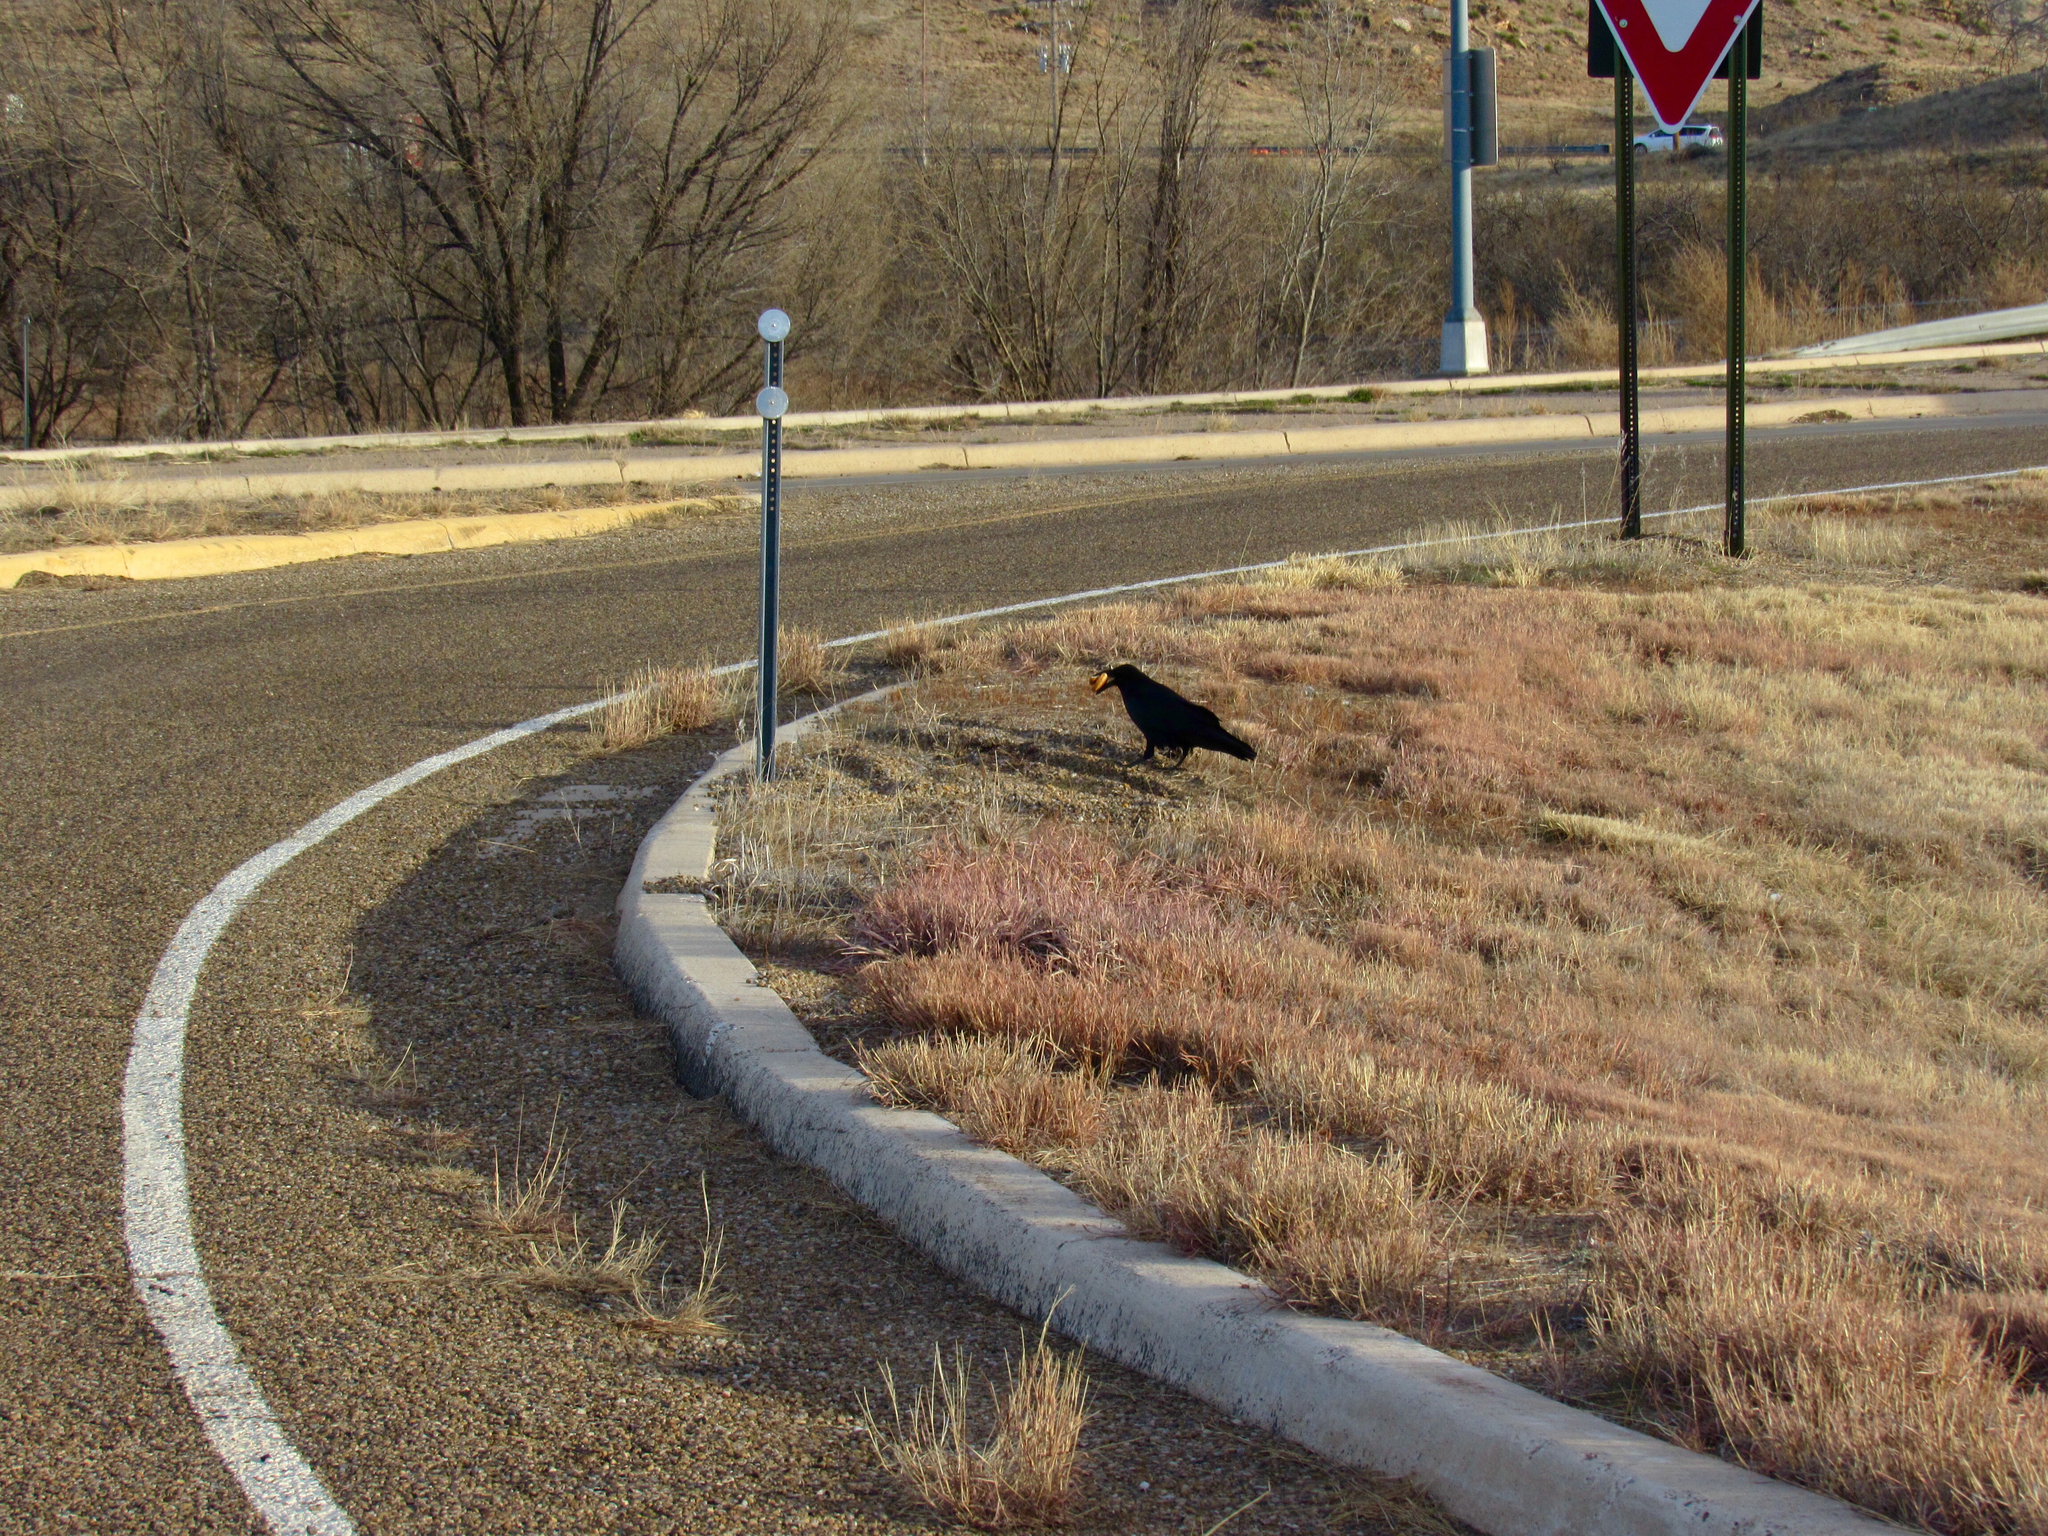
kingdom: Animalia
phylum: Chordata
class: Aves
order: Passeriformes
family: Corvidae
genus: Corvus
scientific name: Corvus
